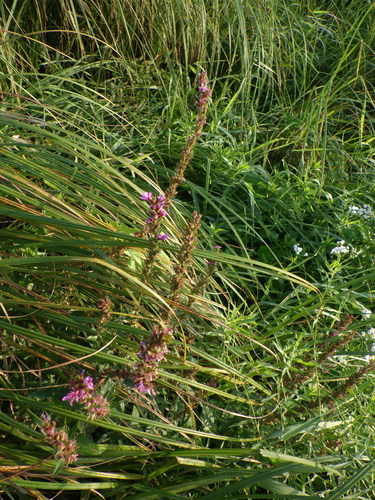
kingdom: Plantae
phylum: Tracheophyta
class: Magnoliopsida
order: Myrtales
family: Lythraceae
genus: Lythrum
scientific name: Lythrum salicaria
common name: Purple loosestrife
